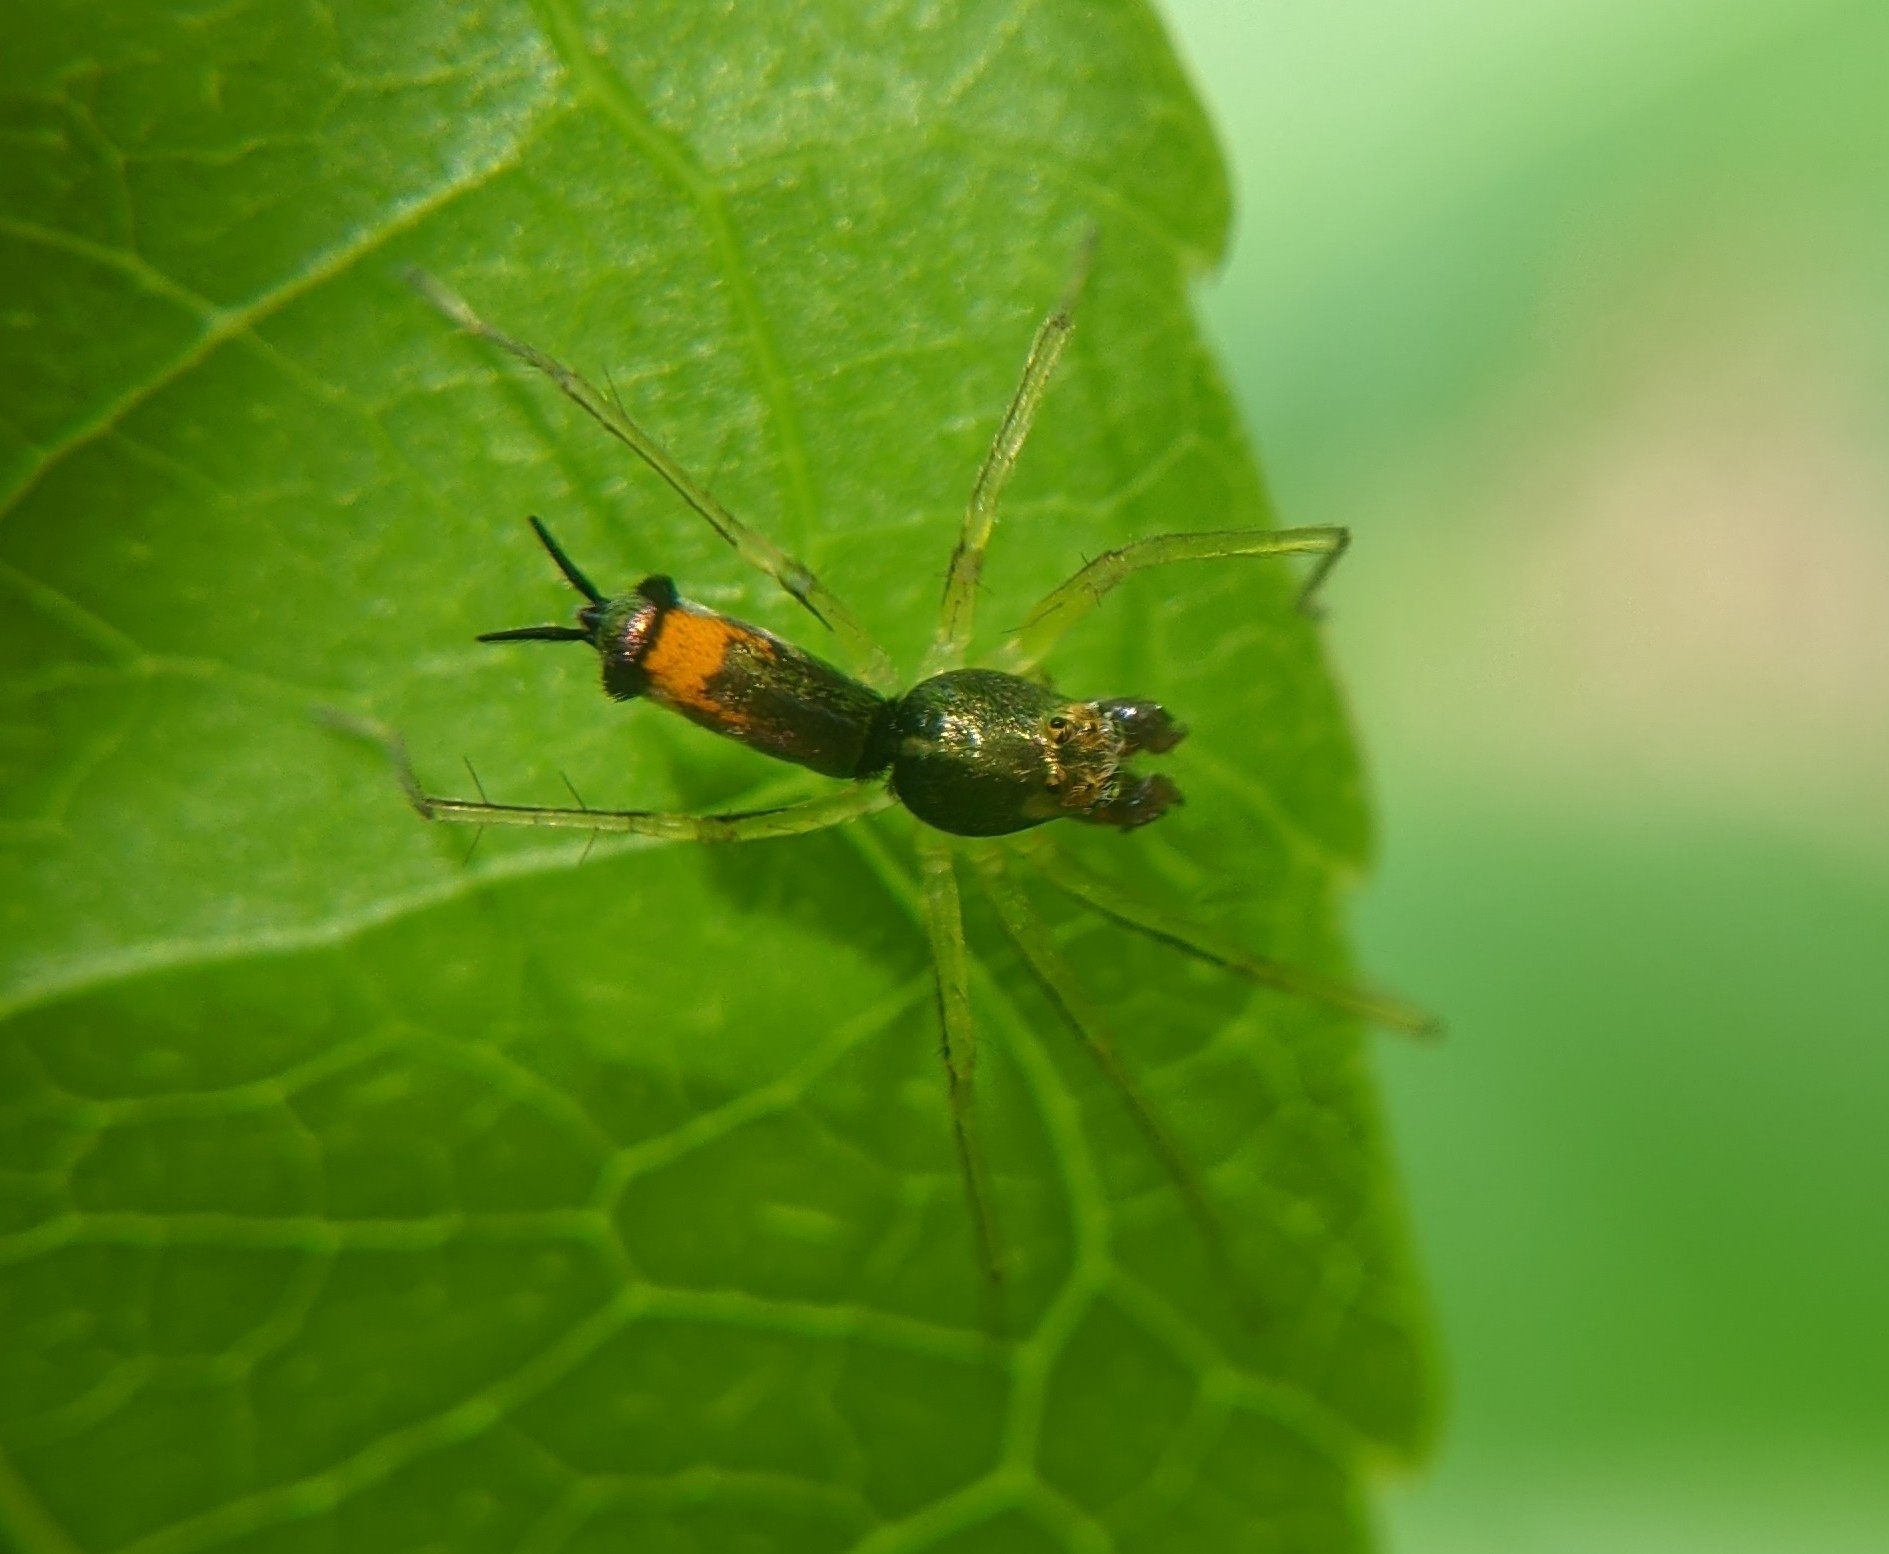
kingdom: Animalia
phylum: Arthropoda
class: Arachnida
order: Araneae
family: Salticidae
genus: Asemonea
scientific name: Asemonea tenuipes
